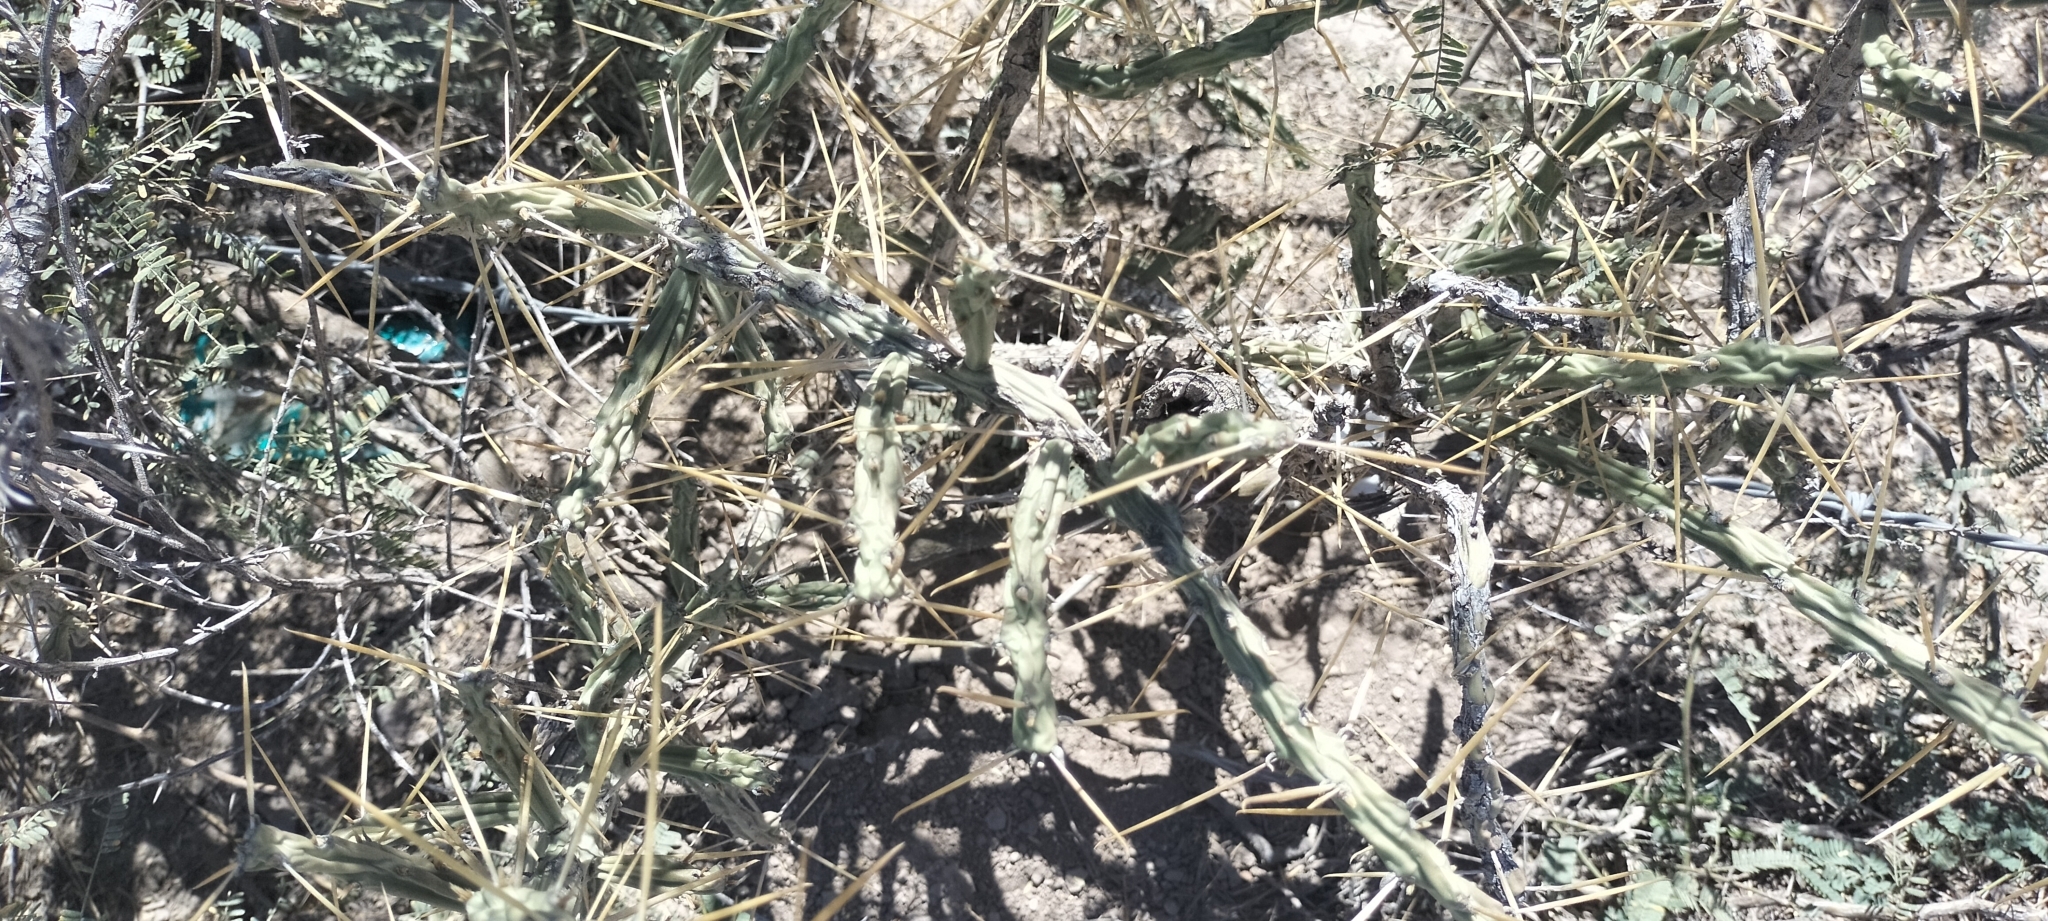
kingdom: Plantae
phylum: Tracheophyta
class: Magnoliopsida
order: Caryophyllales
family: Cactaceae
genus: Cylindropuntia
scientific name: Cylindropuntia kleiniae
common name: Klein's cholla
